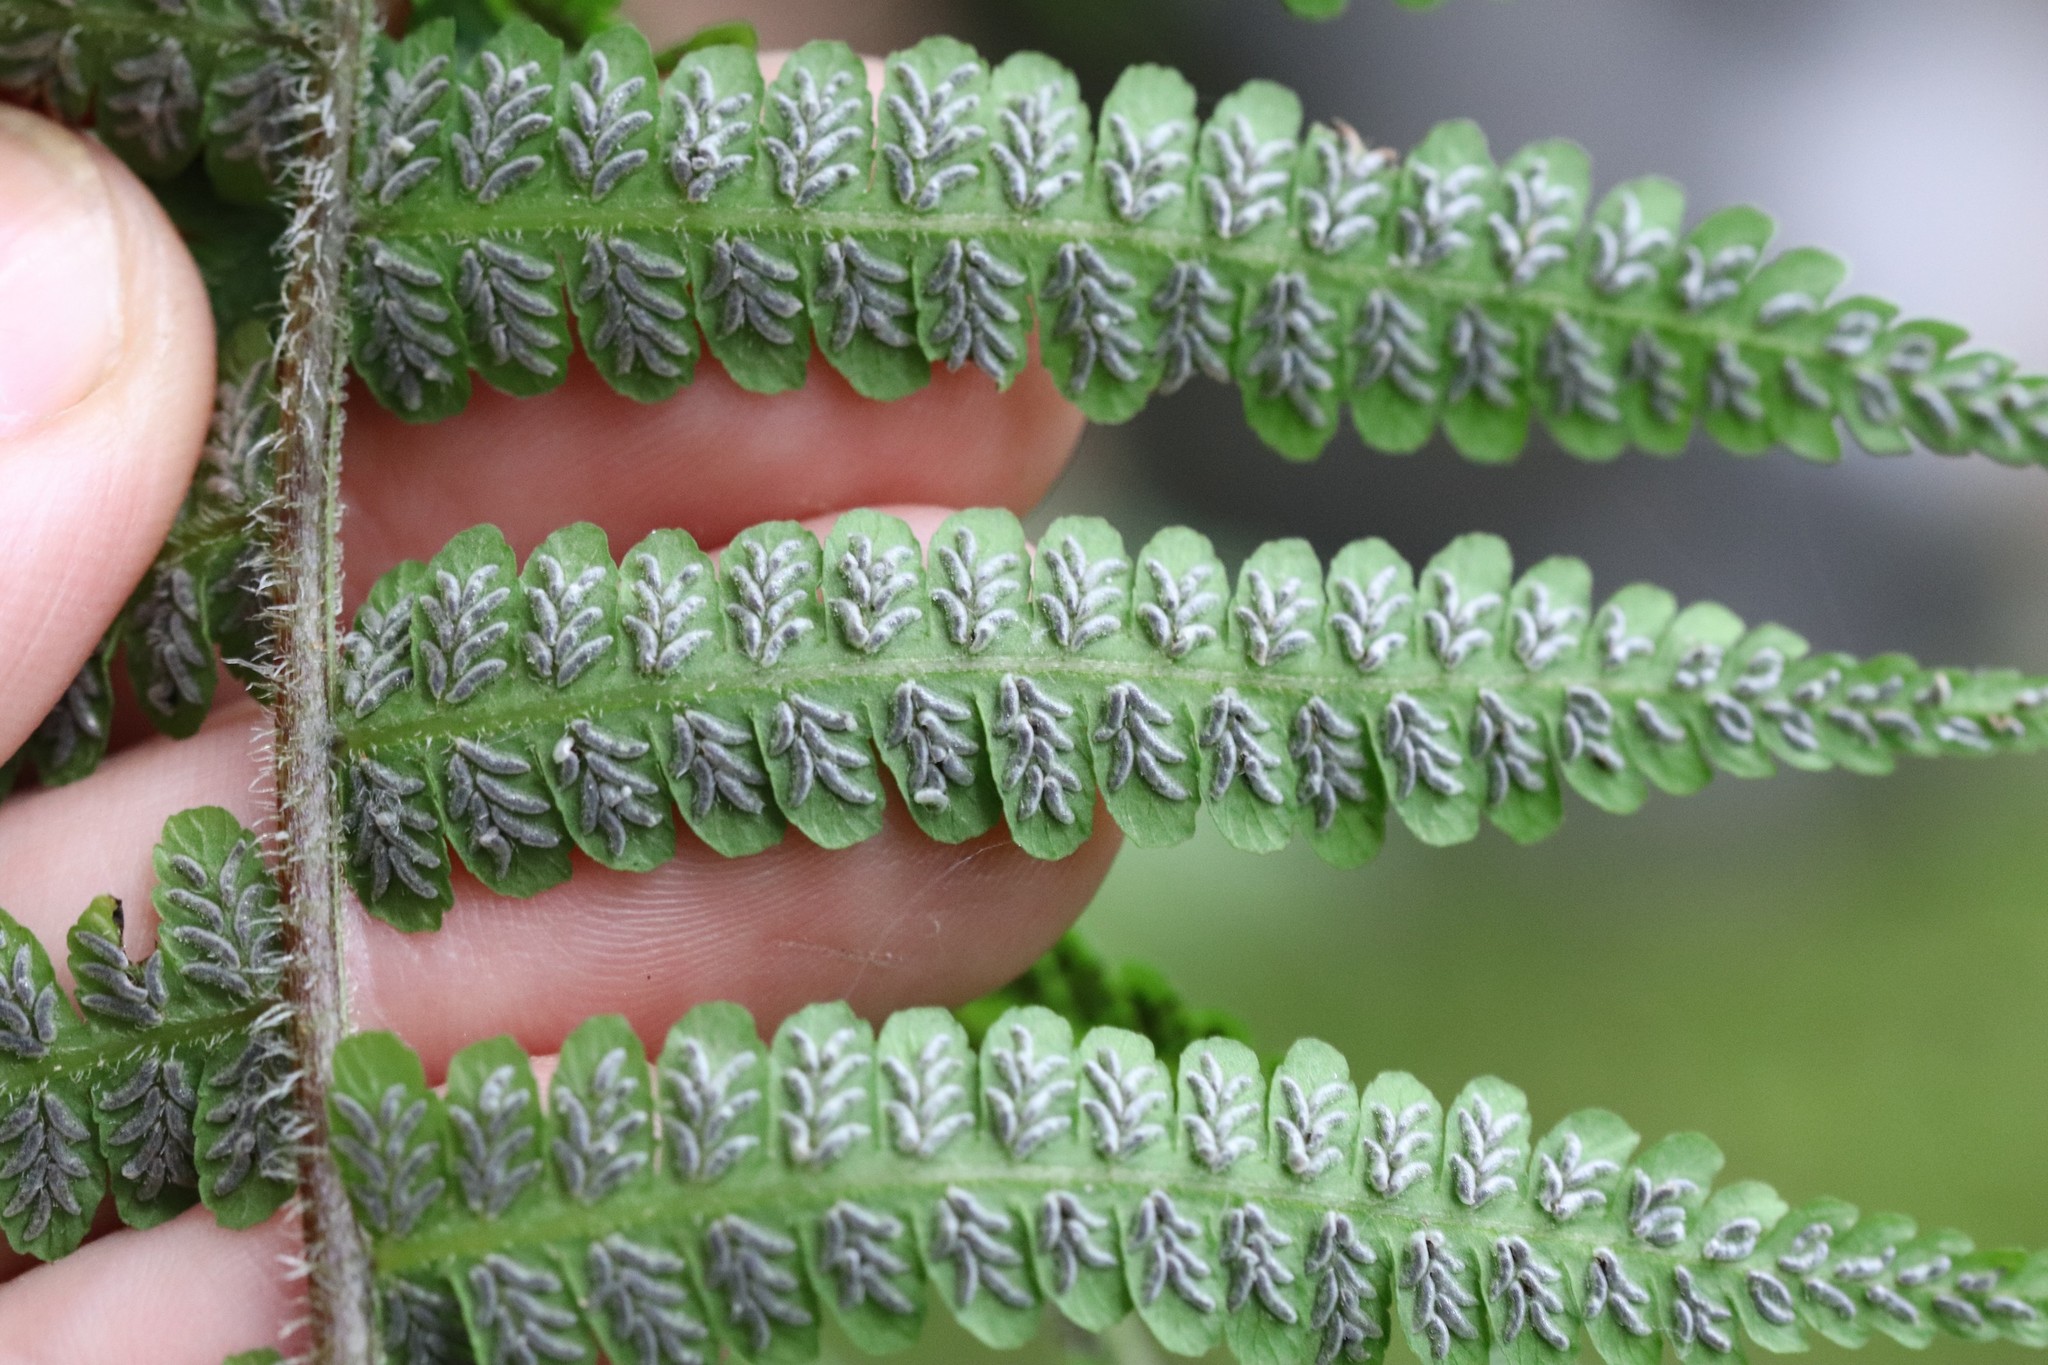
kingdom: Plantae
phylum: Tracheophyta
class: Polypodiopsida
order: Polypodiales
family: Athyriaceae
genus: Deparia
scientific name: Deparia pycnosora
